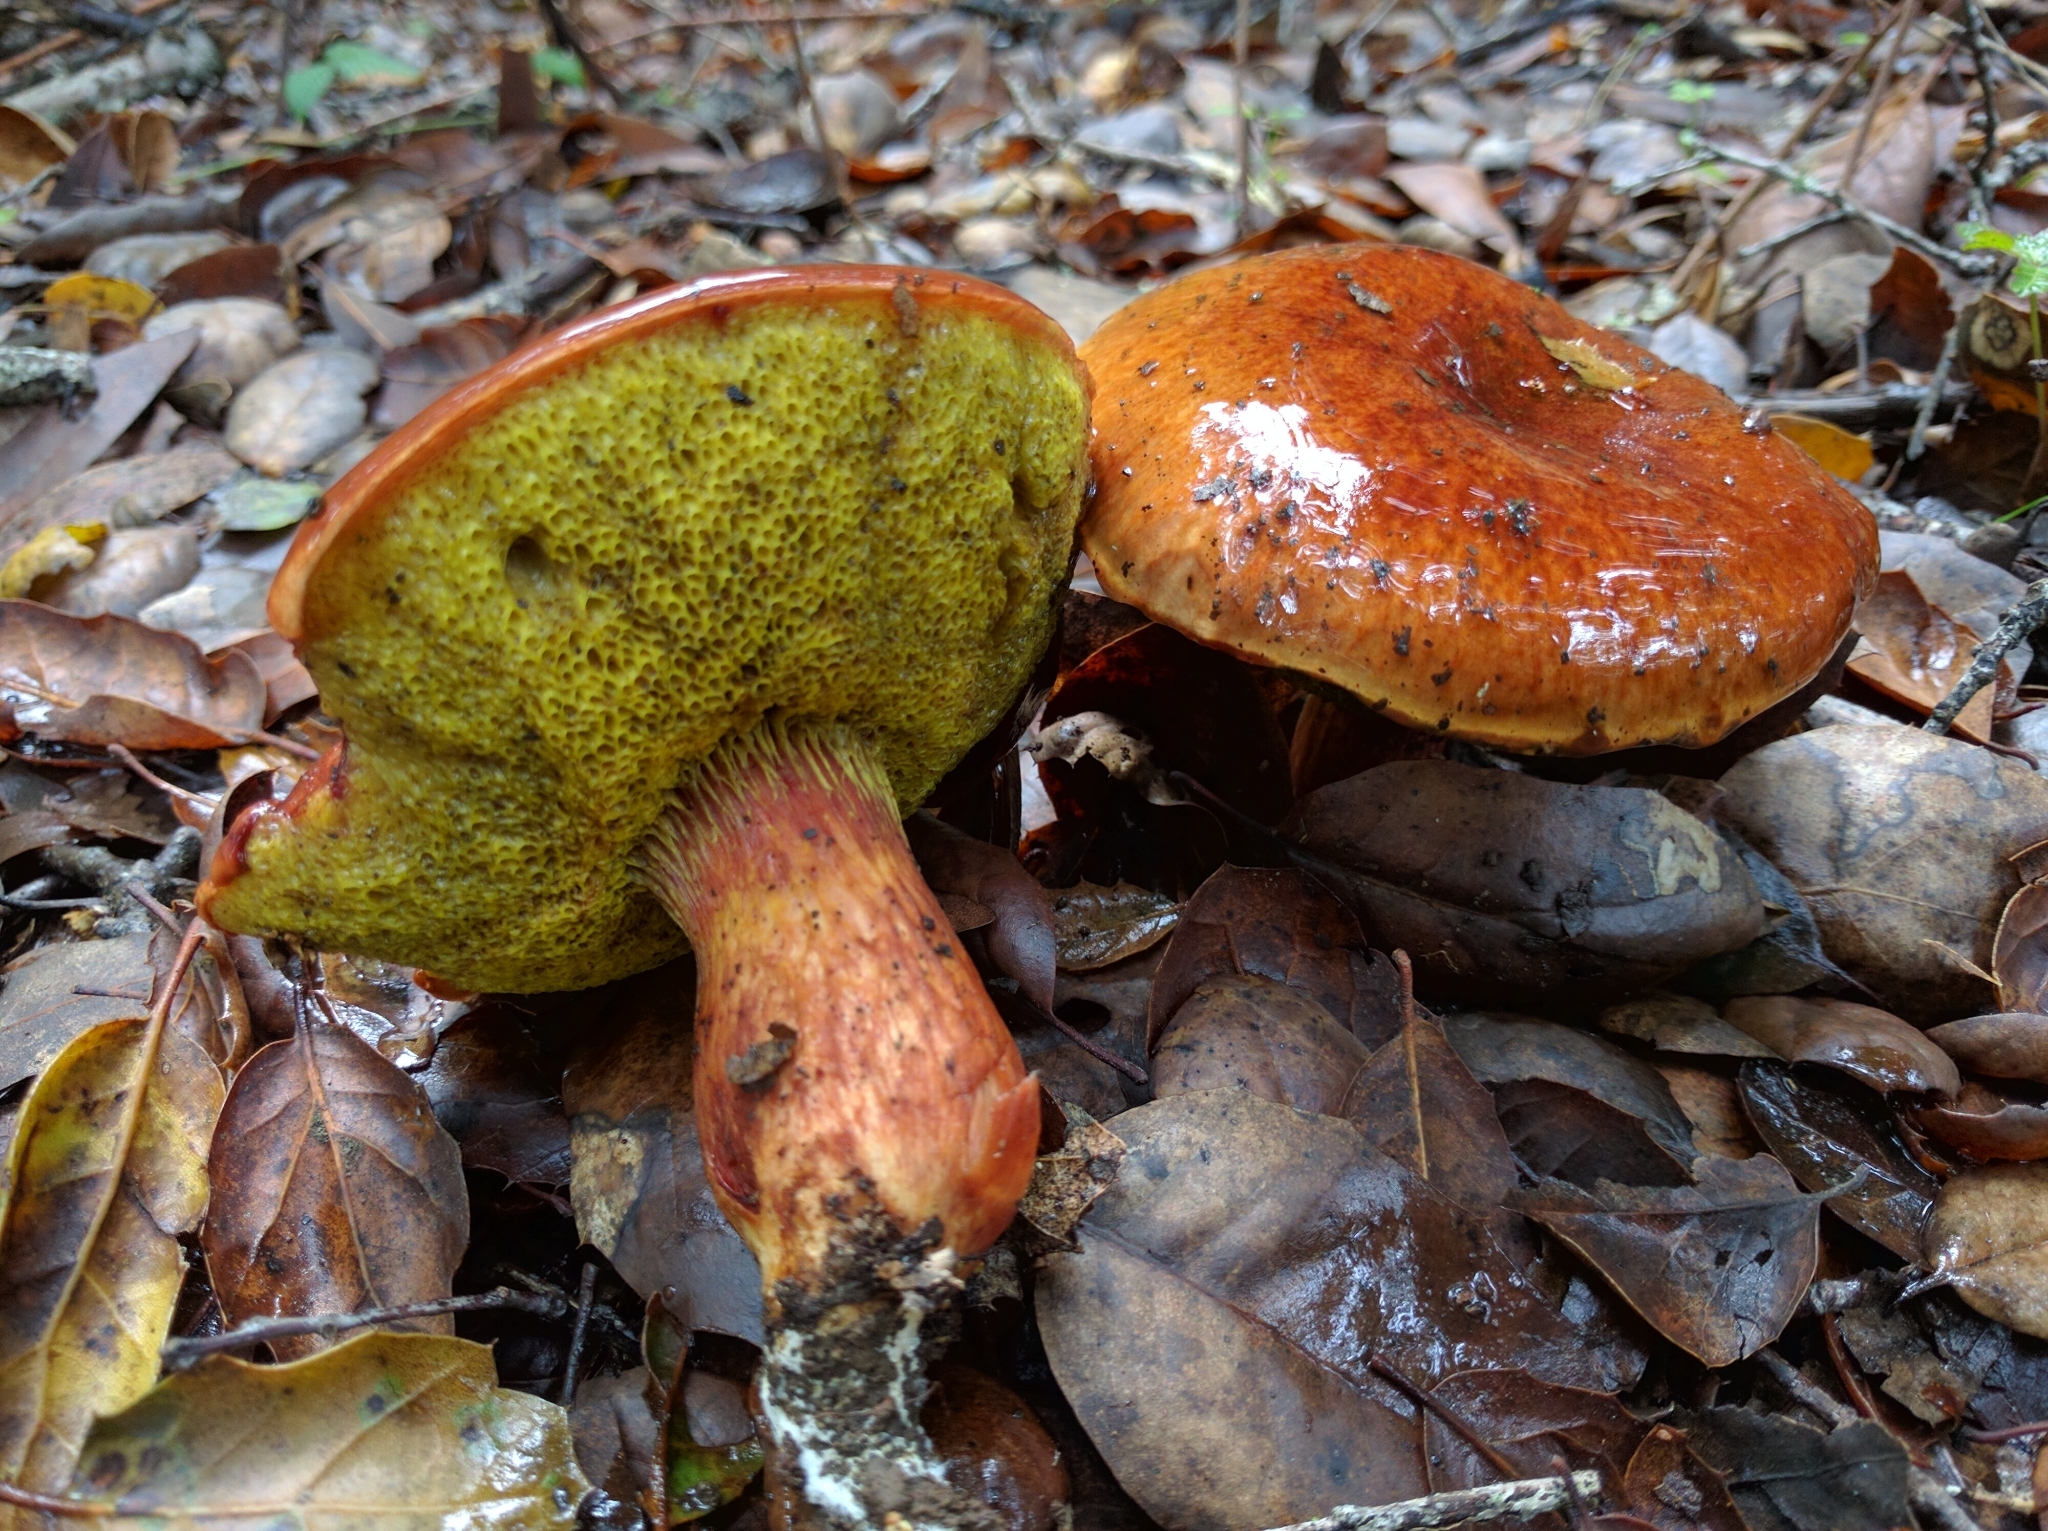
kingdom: Fungi
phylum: Basidiomycota
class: Agaricomycetes
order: Boletales
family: Boletaceae
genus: Aureoboletus
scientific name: Aureoboletus flaviporus
